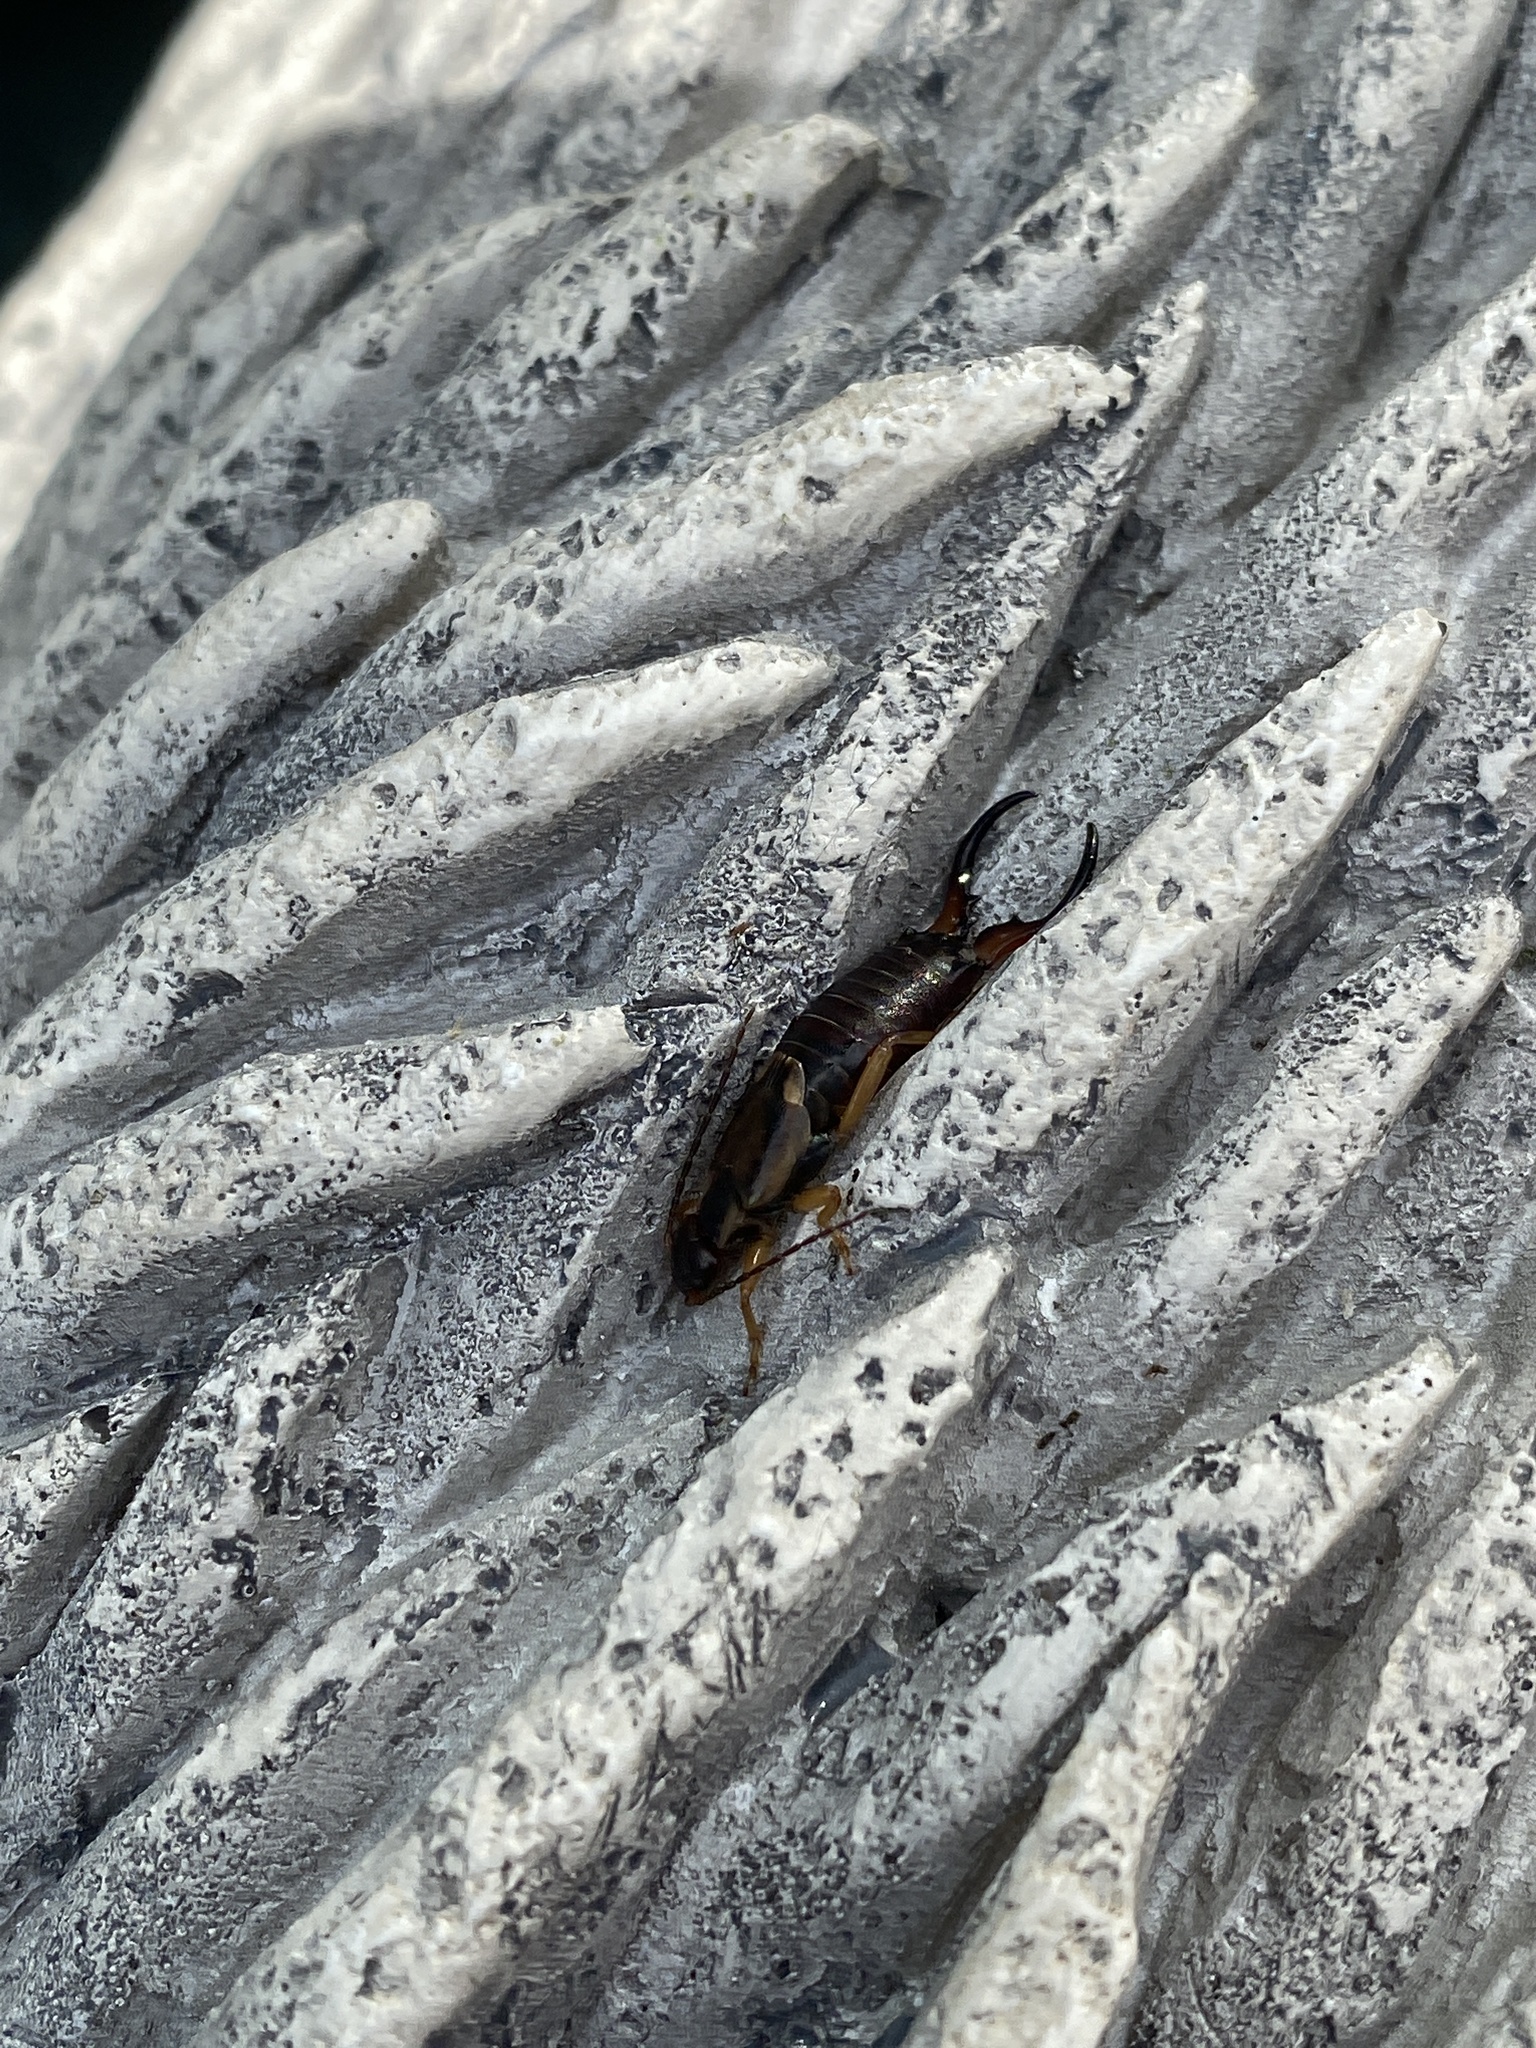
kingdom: Animalia
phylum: Arthropoda
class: Insecta
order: Dermaptera
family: Forficulidae
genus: Forficula
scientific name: Forficula
